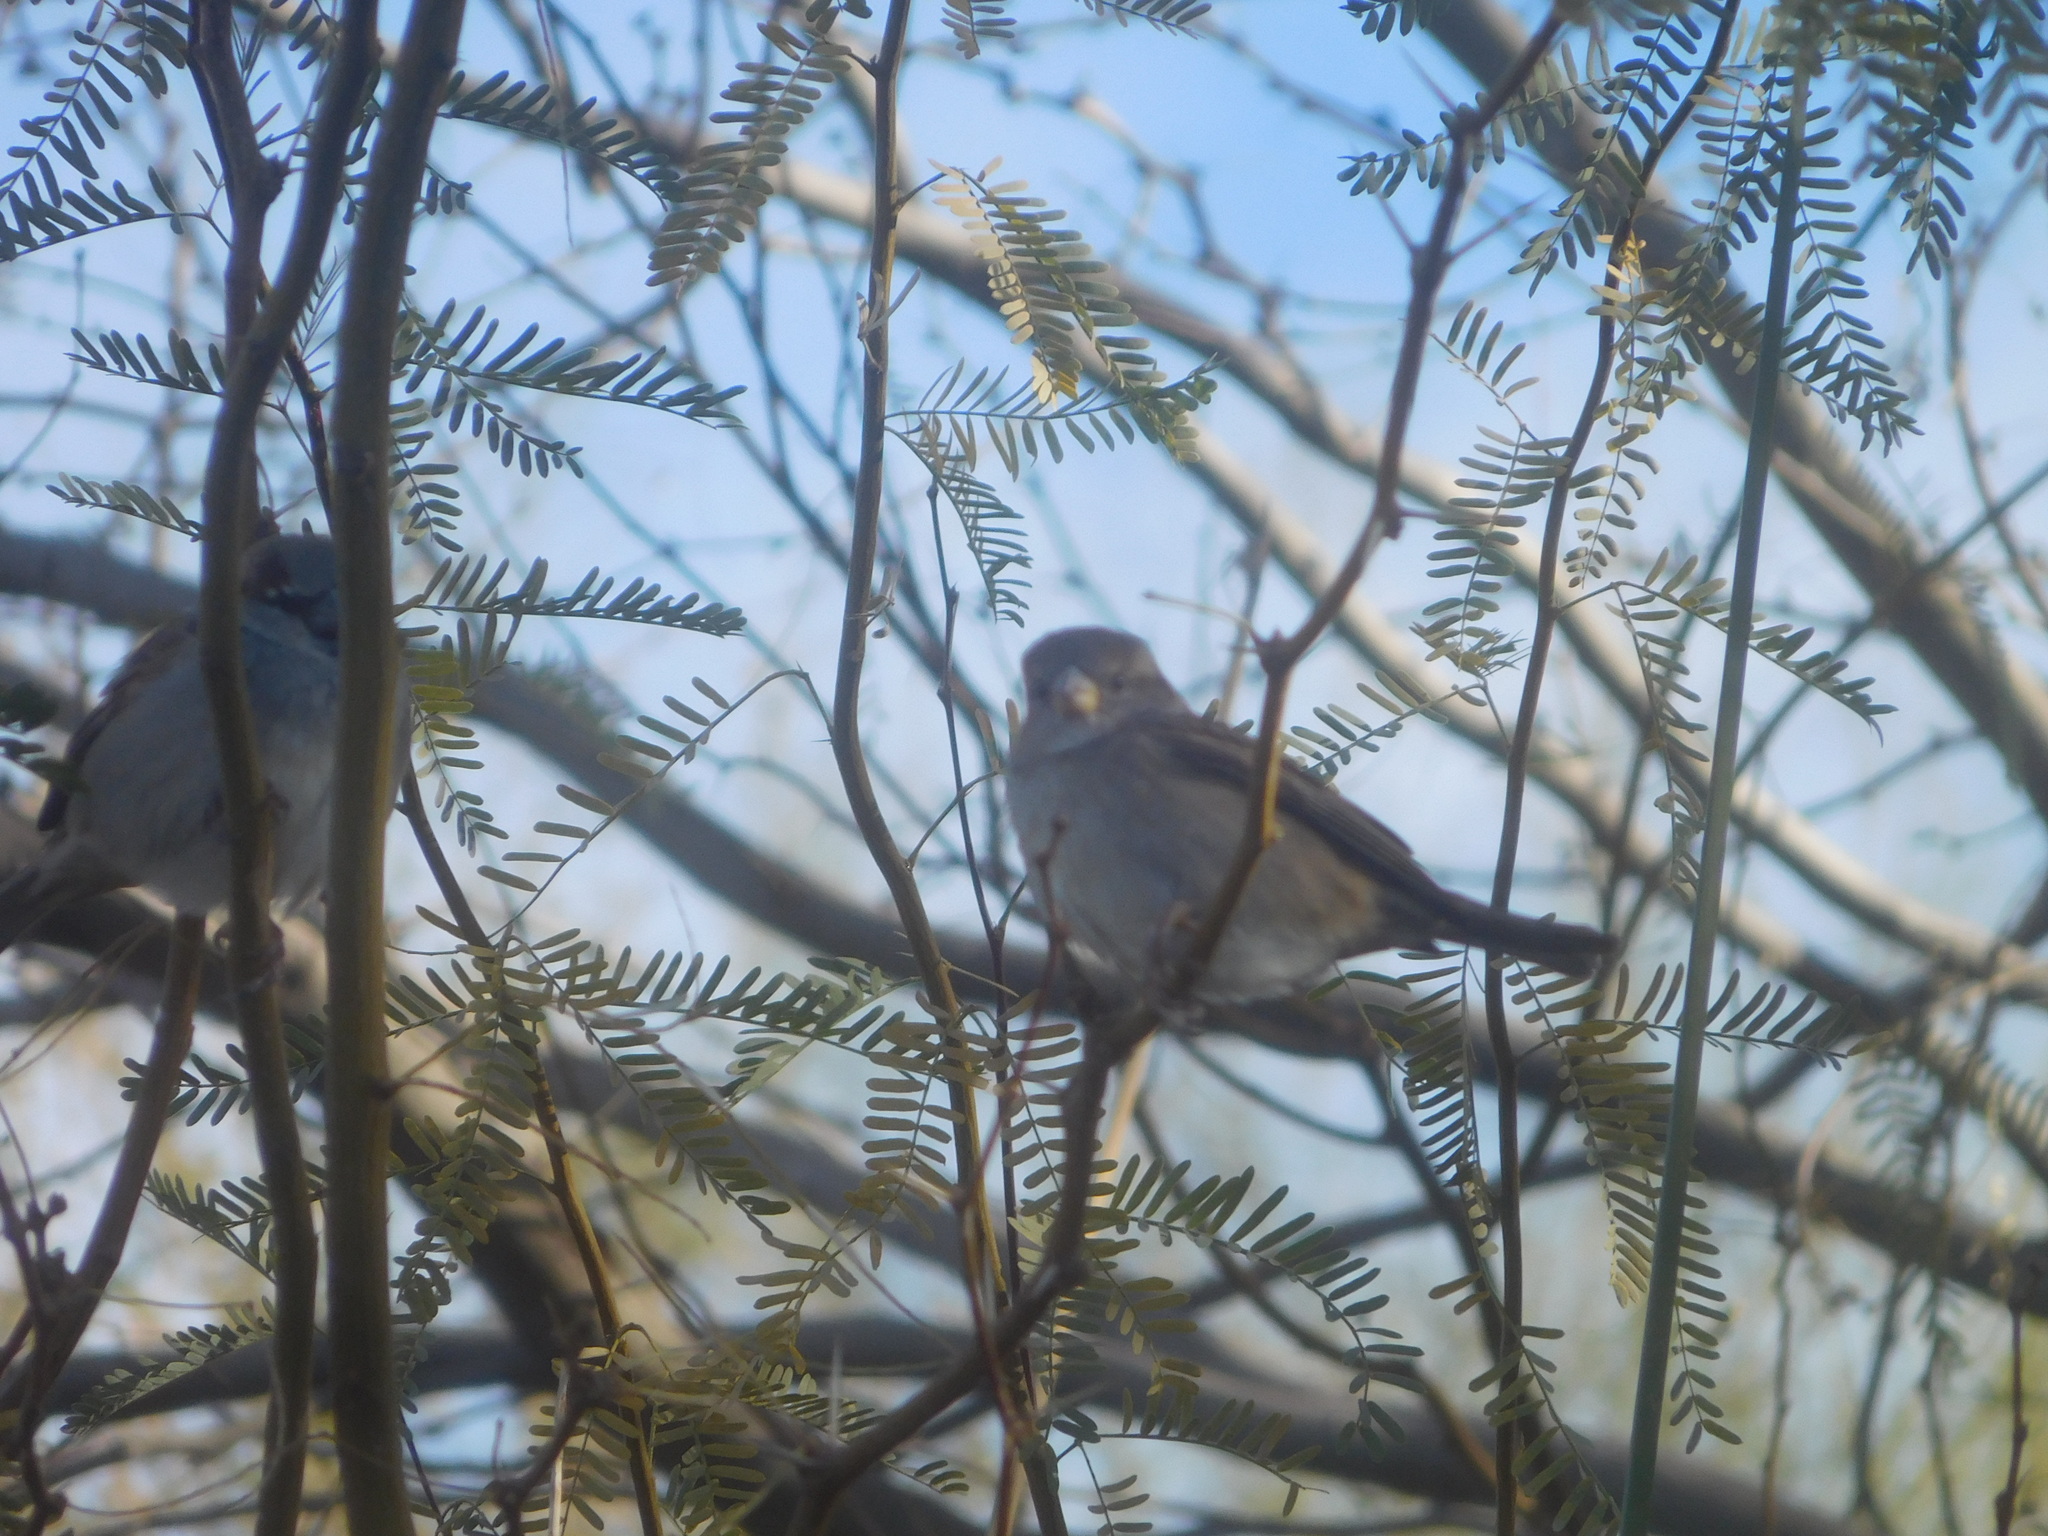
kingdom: Animalia
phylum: Chordata
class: Aves
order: Passeriformes
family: Passeridae
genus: Passer
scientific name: Passer domesticus
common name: House sparrow
